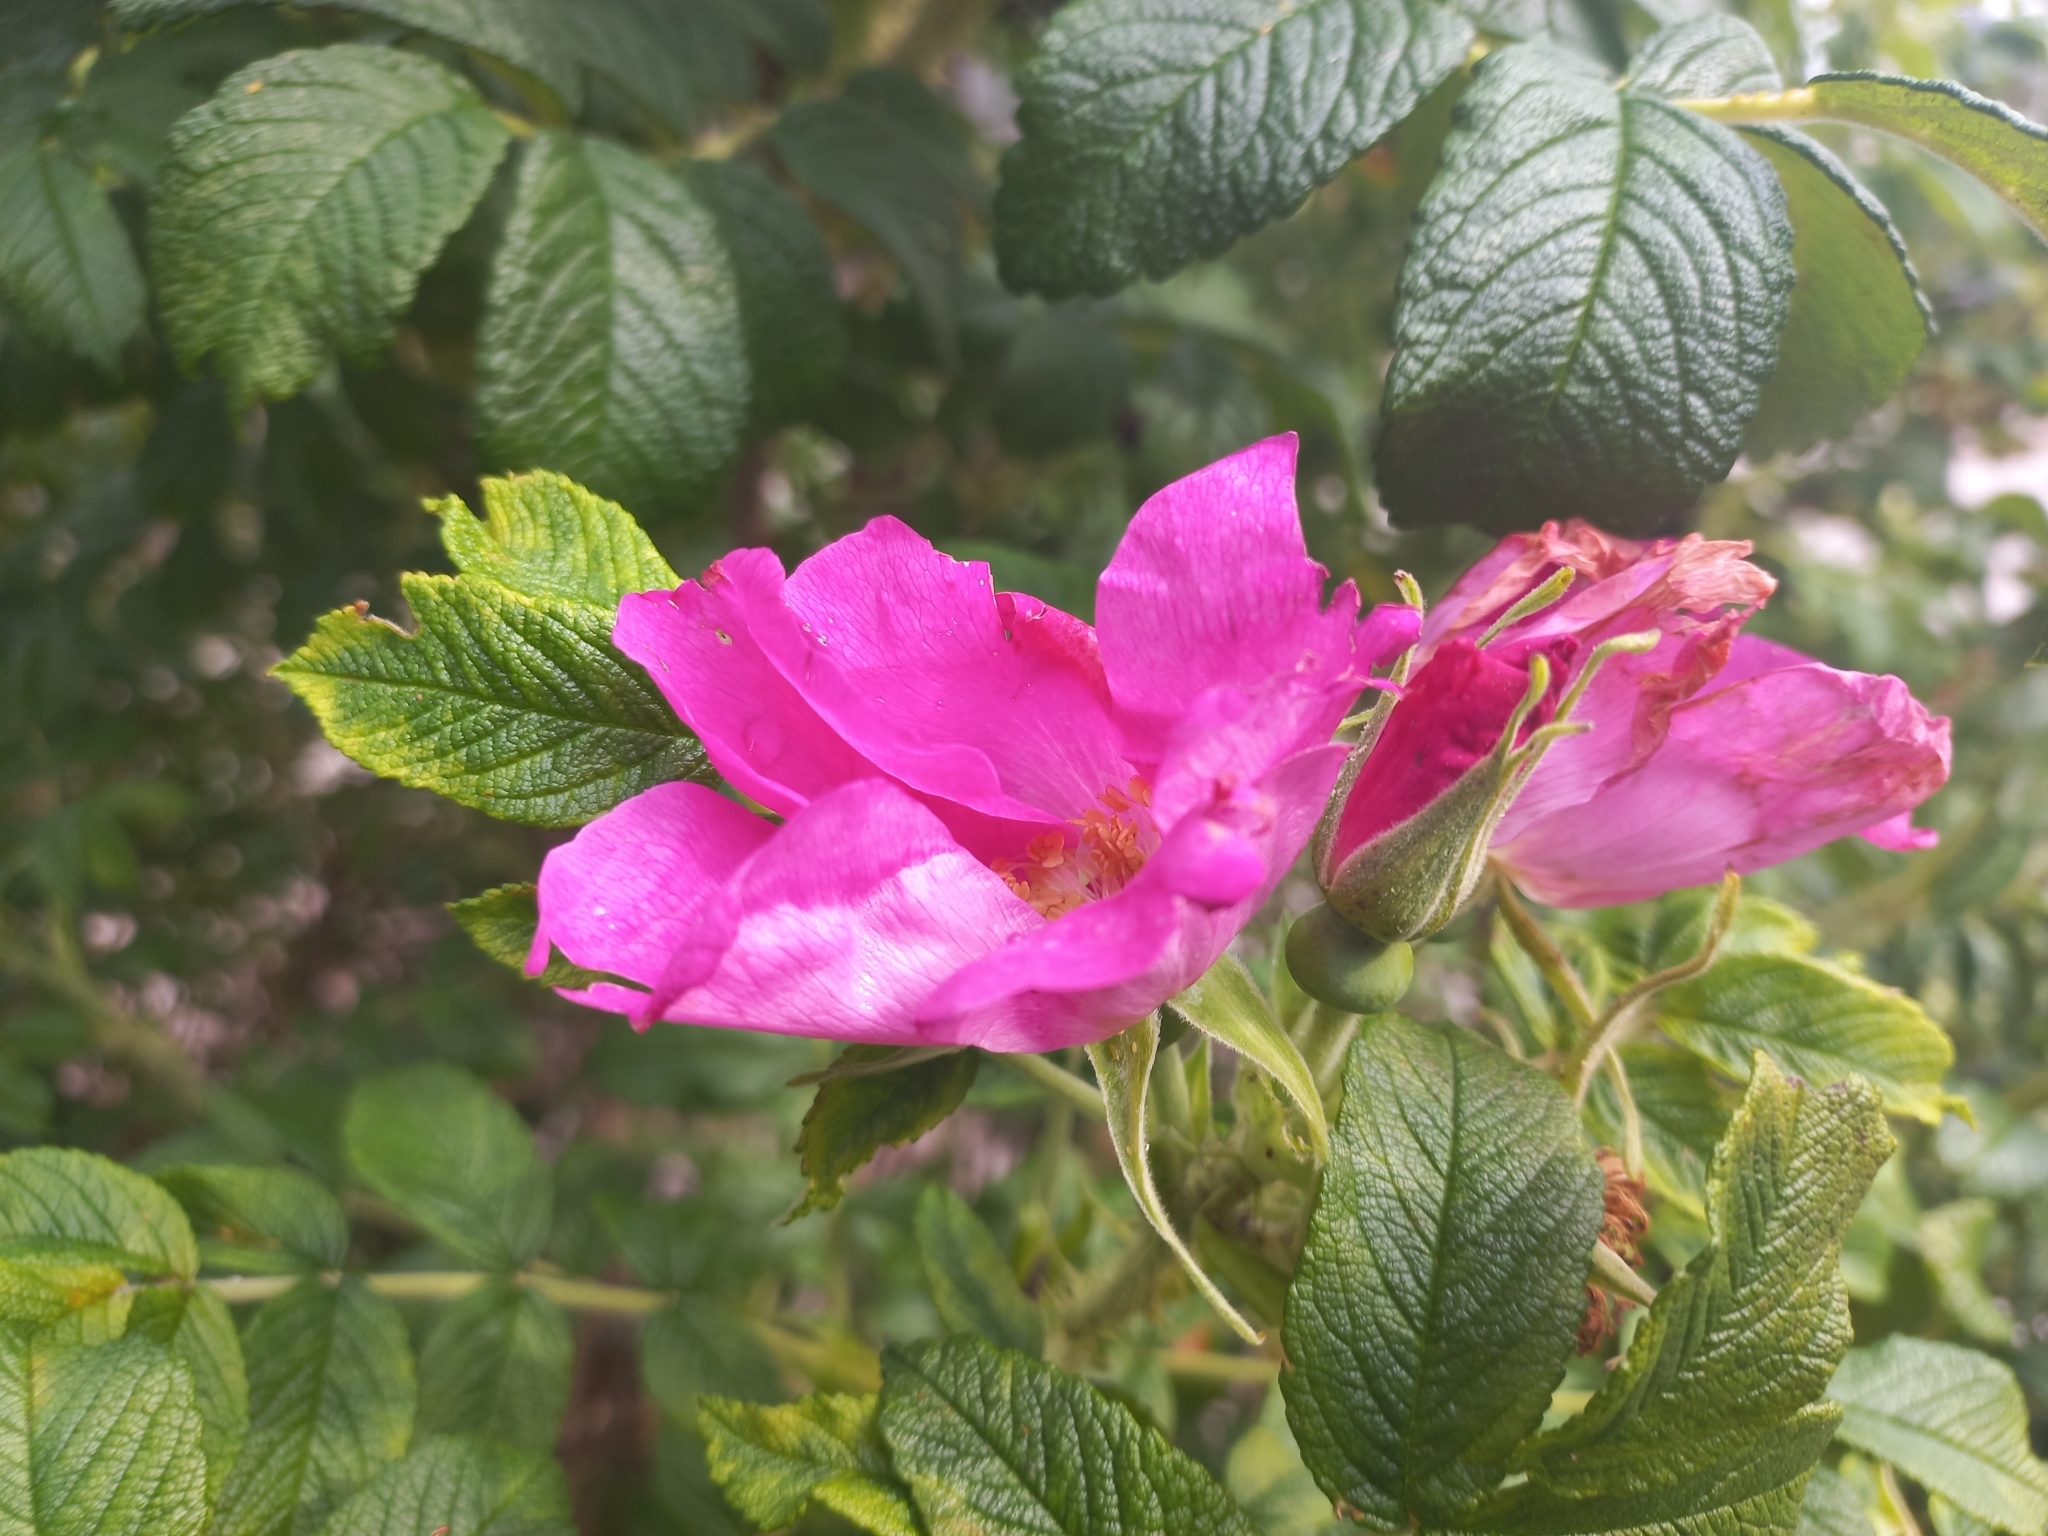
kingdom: Plantae
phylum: Tracheophyta
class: Magnoliopsida
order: Rosales
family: Rosaceae
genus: Rosa
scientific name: Rosa rugosa
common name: Japanese rose
